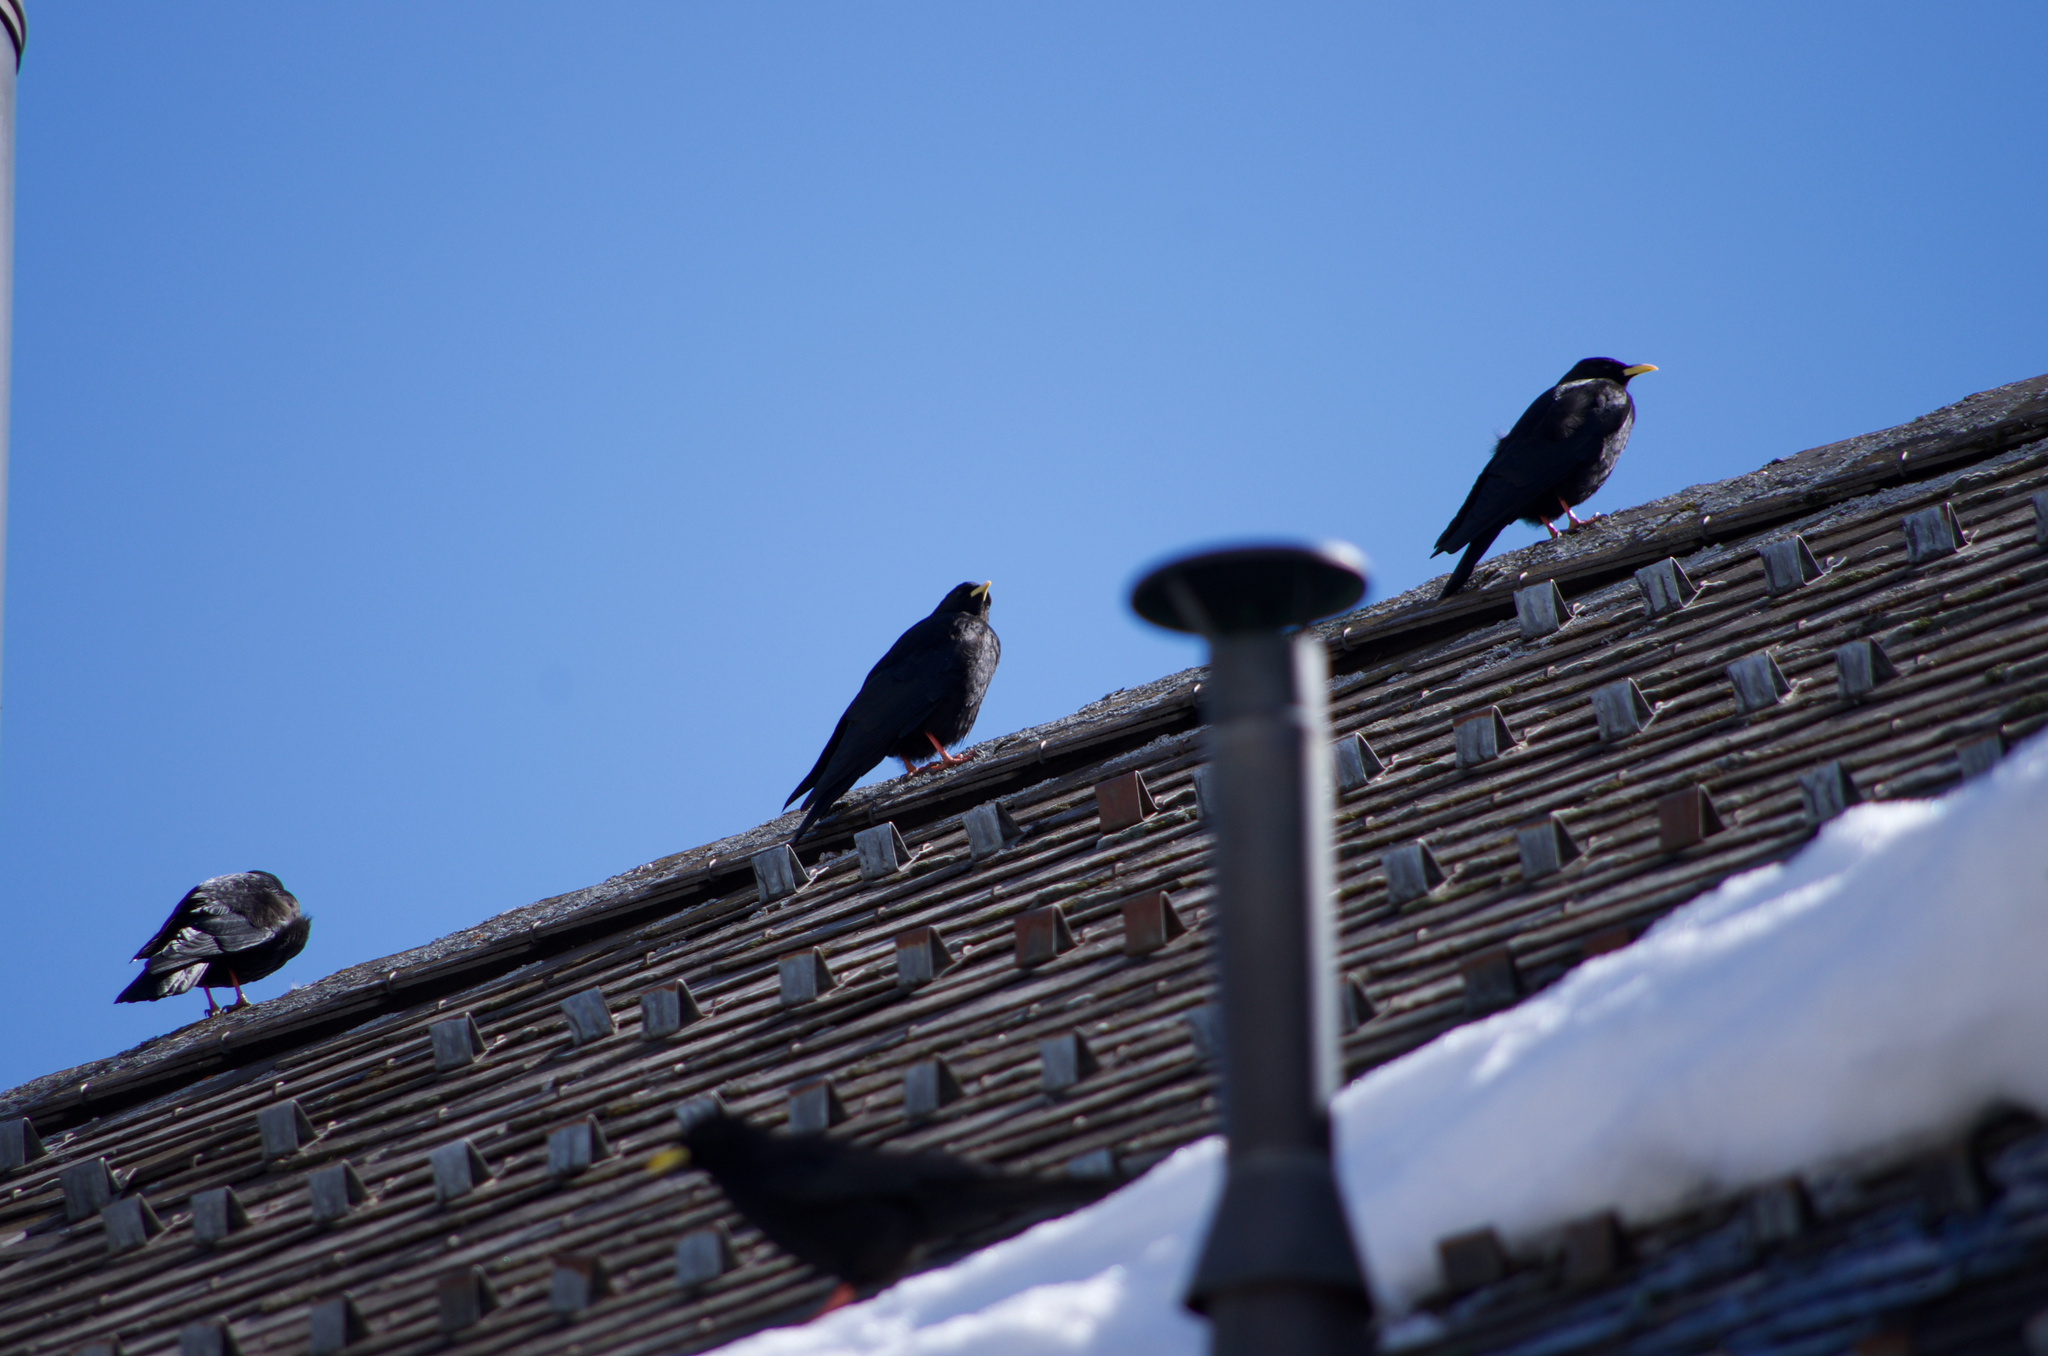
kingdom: Animalia
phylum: Chordata
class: Aves
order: Passeriformes
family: Corvidae
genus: Pyrrhocorax
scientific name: Pyrrhocorax graculus
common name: Alpine chough
